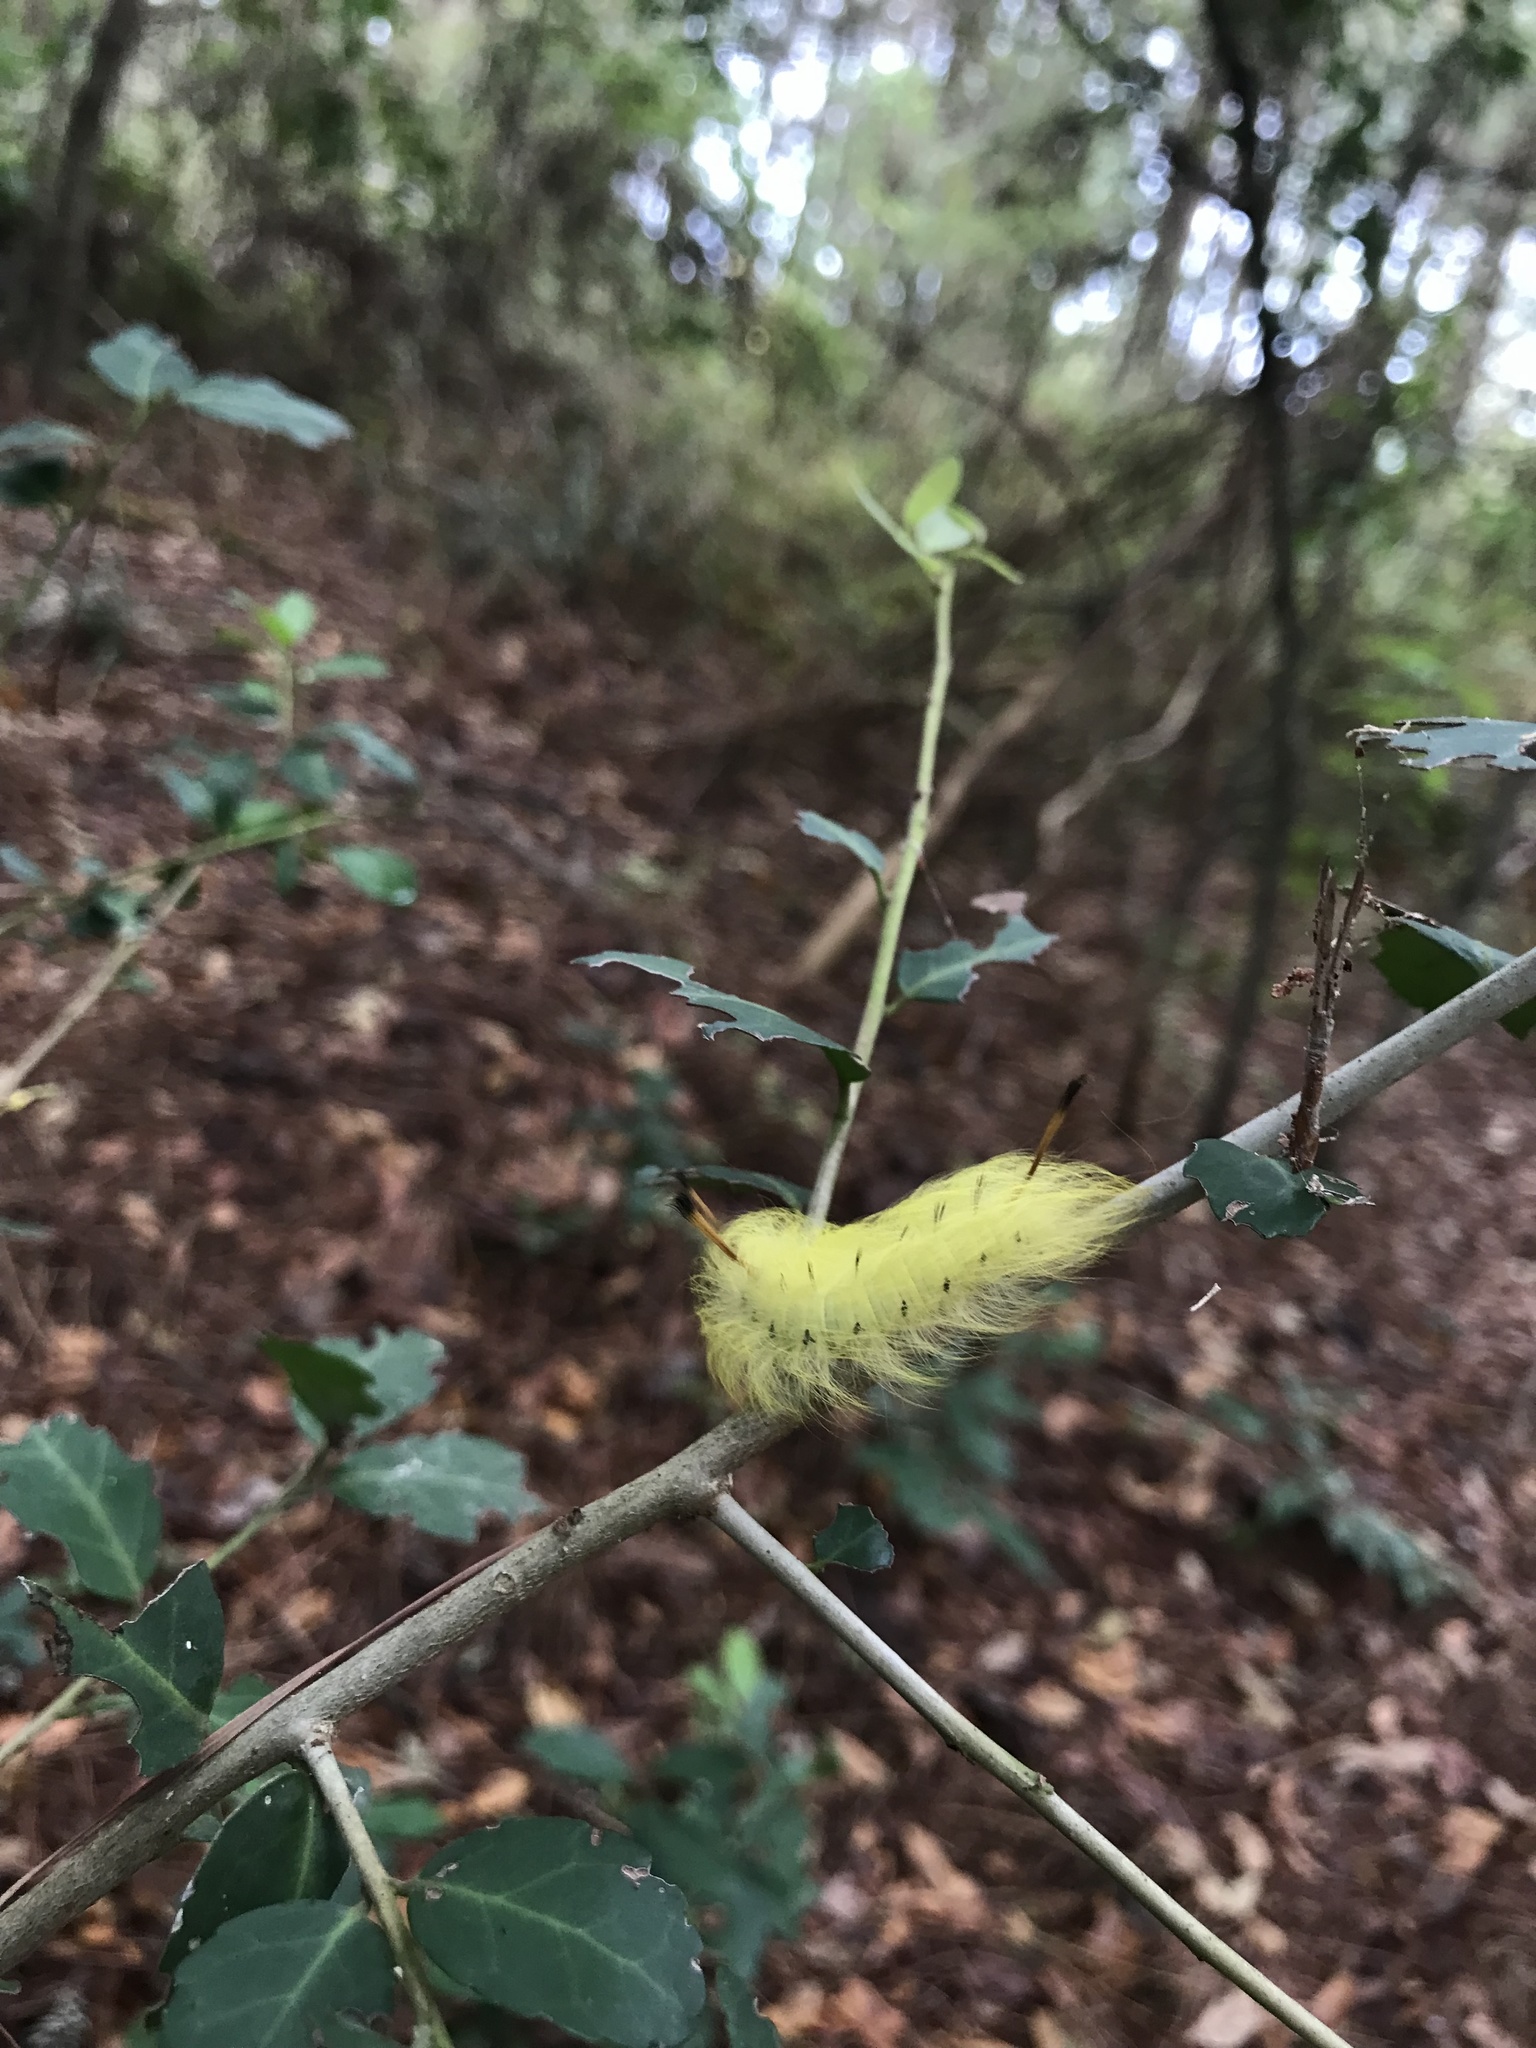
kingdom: Animalia
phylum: Arthropoda
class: Insecta
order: Lepidoptera
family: Apatelodidae
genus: Hygrochroa
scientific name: Hygrochroa Apatelodes torrefacta
